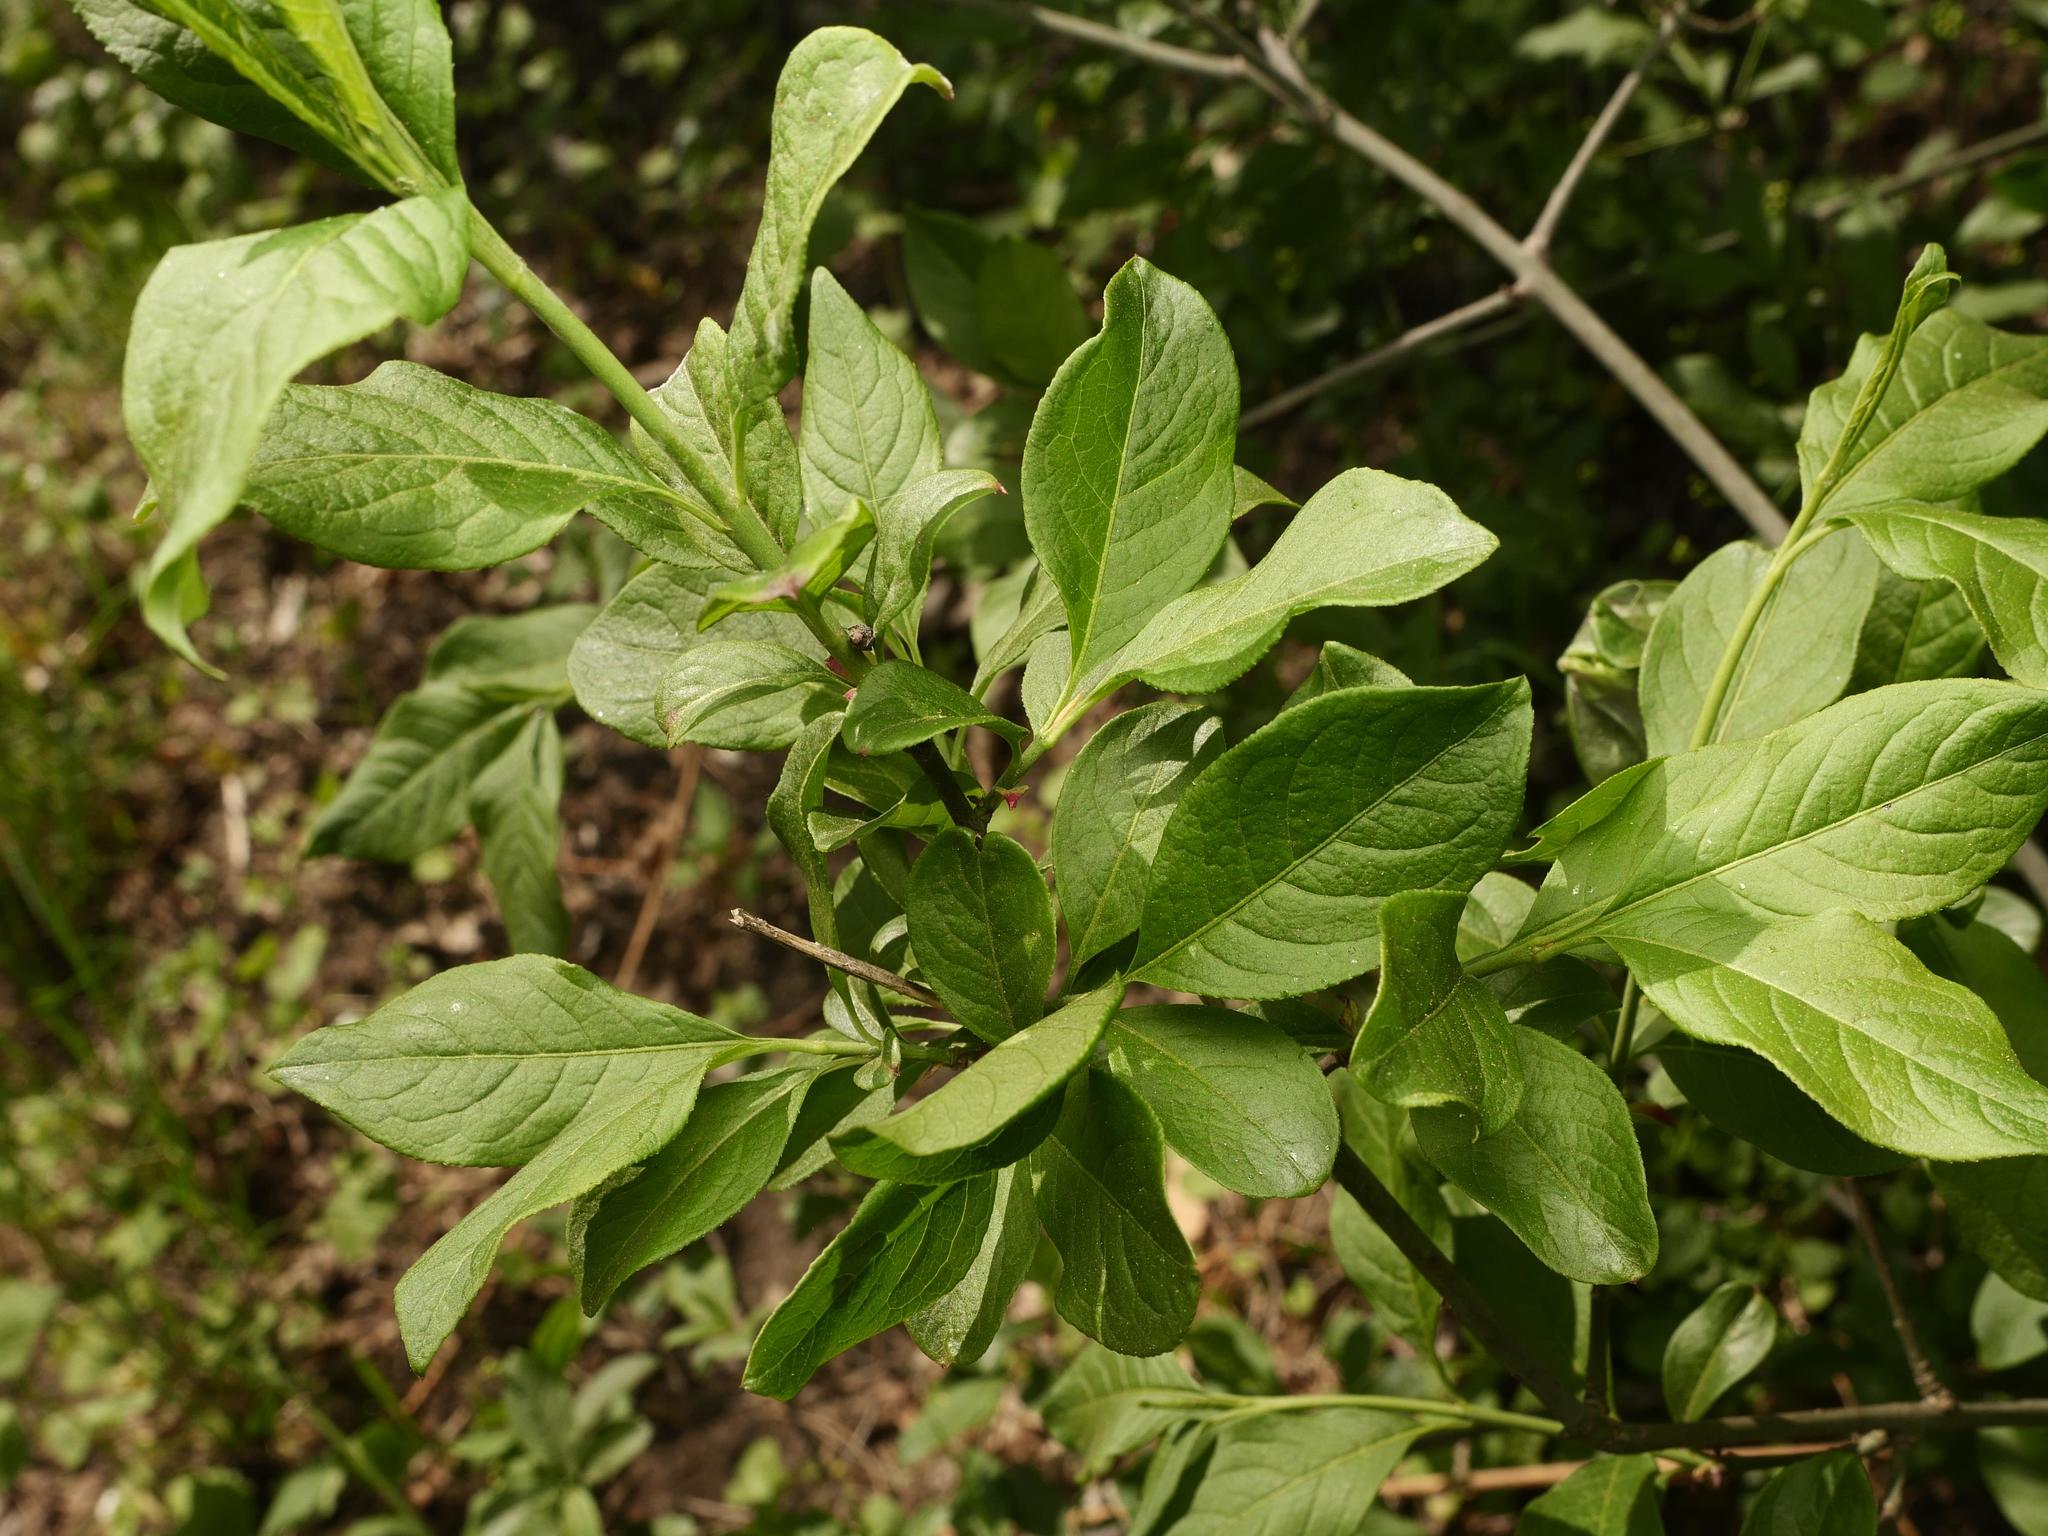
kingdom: Plantae
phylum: Tracheophyta
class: Magnoliopsida
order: Celastrales
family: Celastraceae
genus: Euonymus
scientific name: Euonymus europaeus
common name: Spindle
